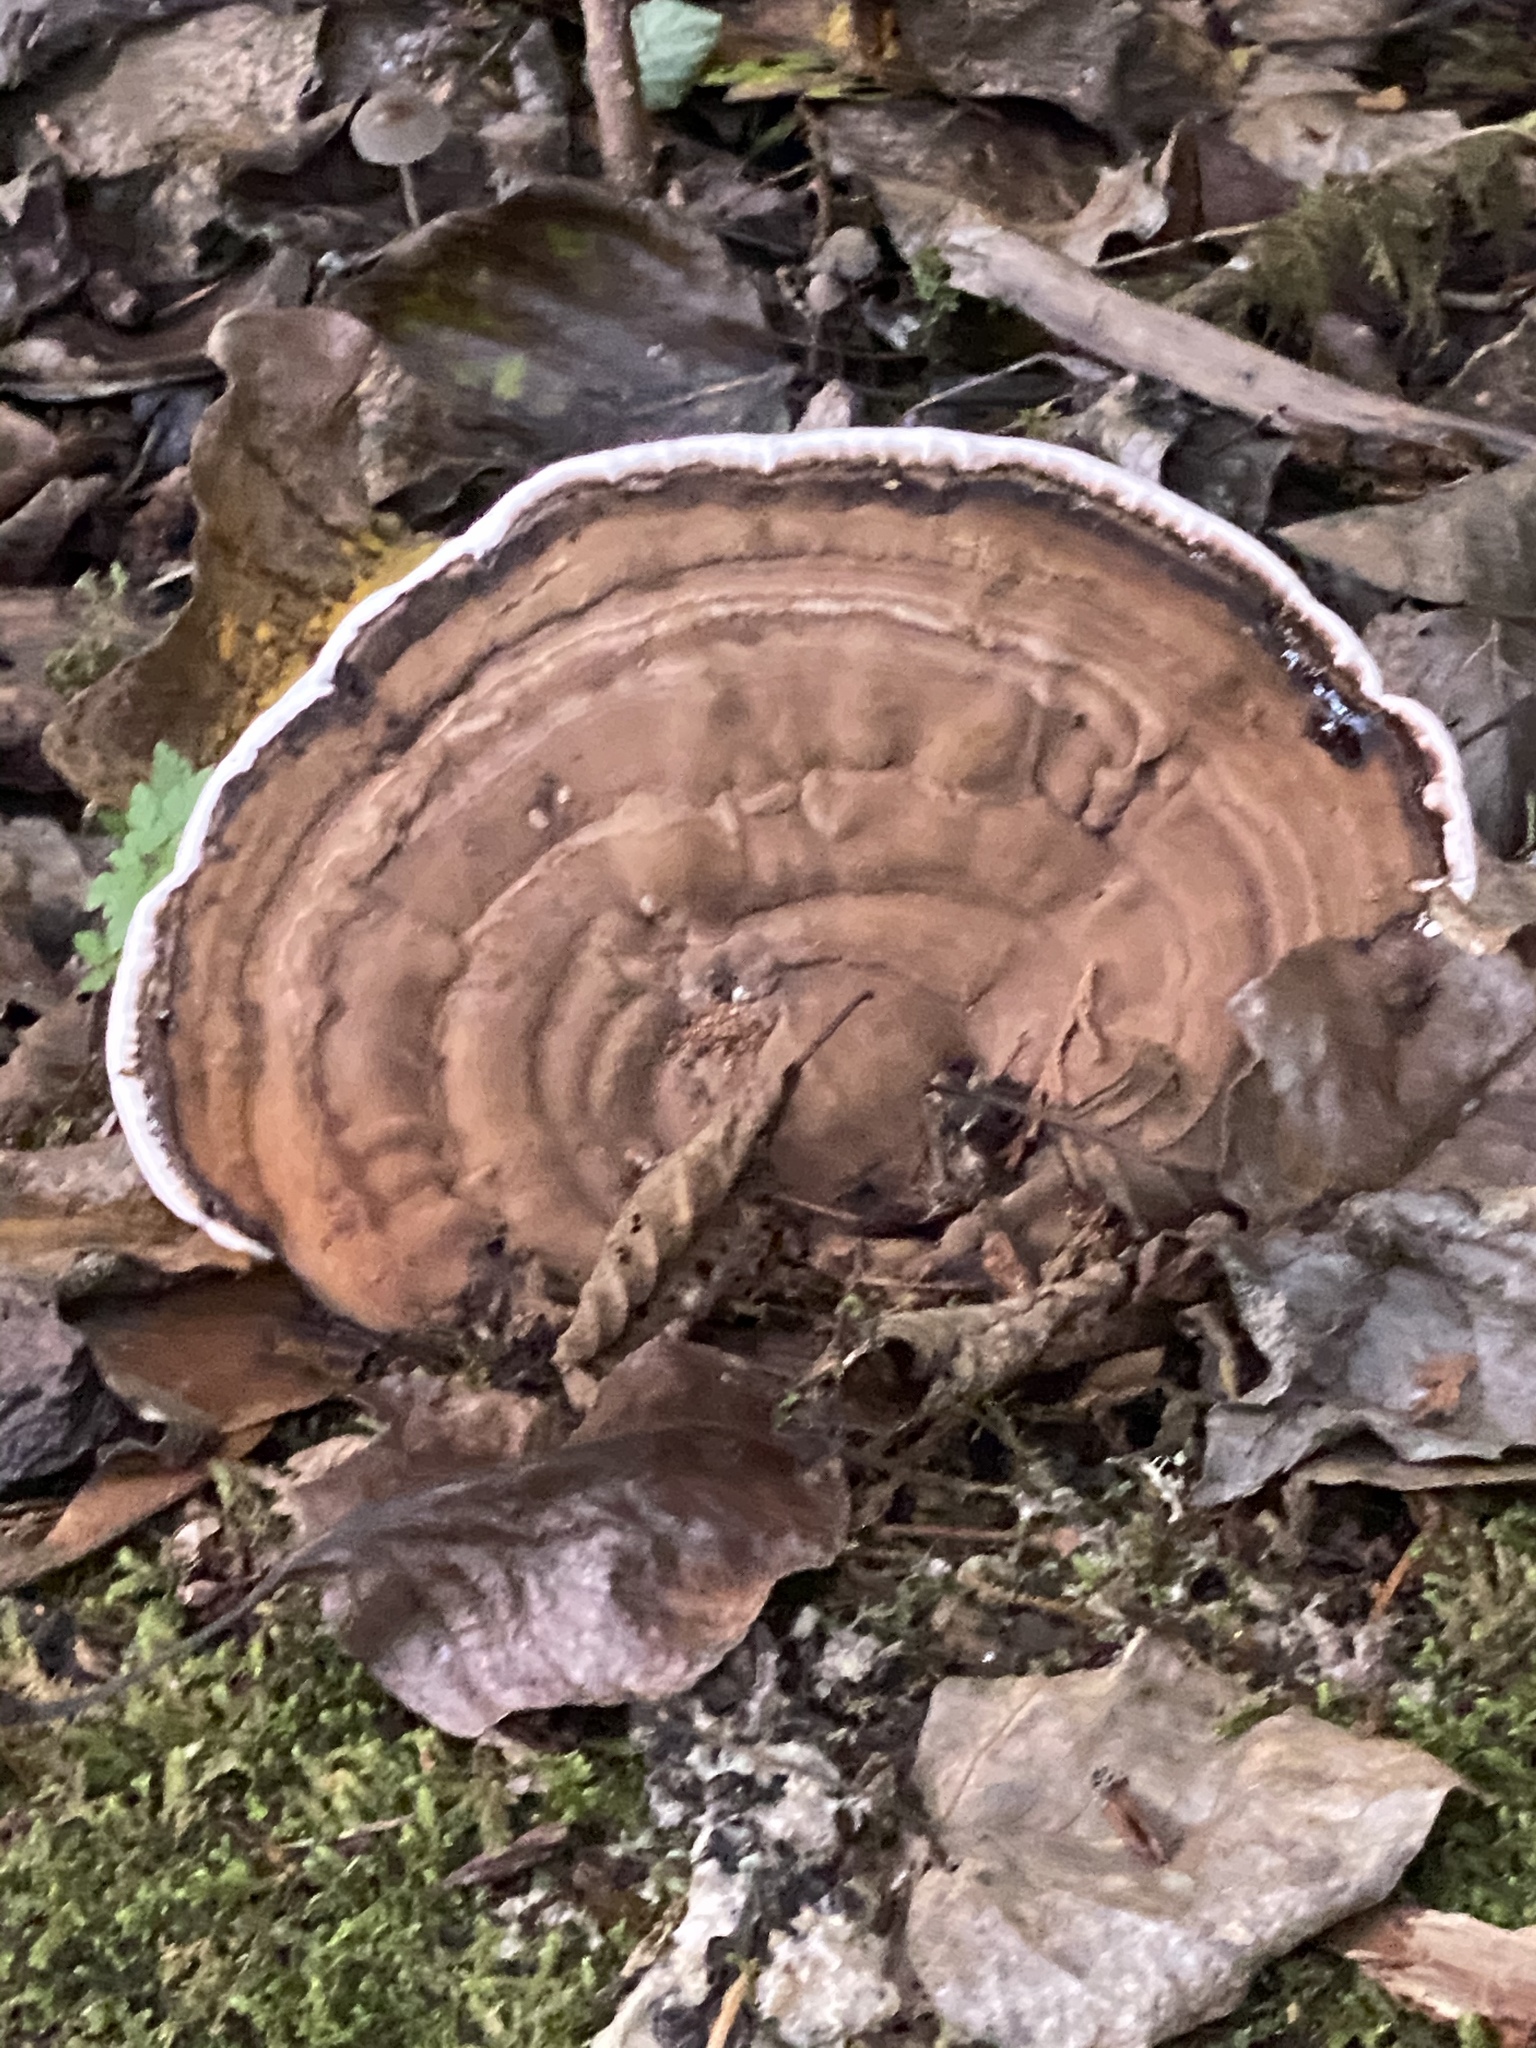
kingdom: Fungi
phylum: Basidiomycota
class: Agaricomycetes
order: Polyporales
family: Polyporaceae
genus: Ganoderma
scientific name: Ganoderma applanatum
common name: Artist's bracket
